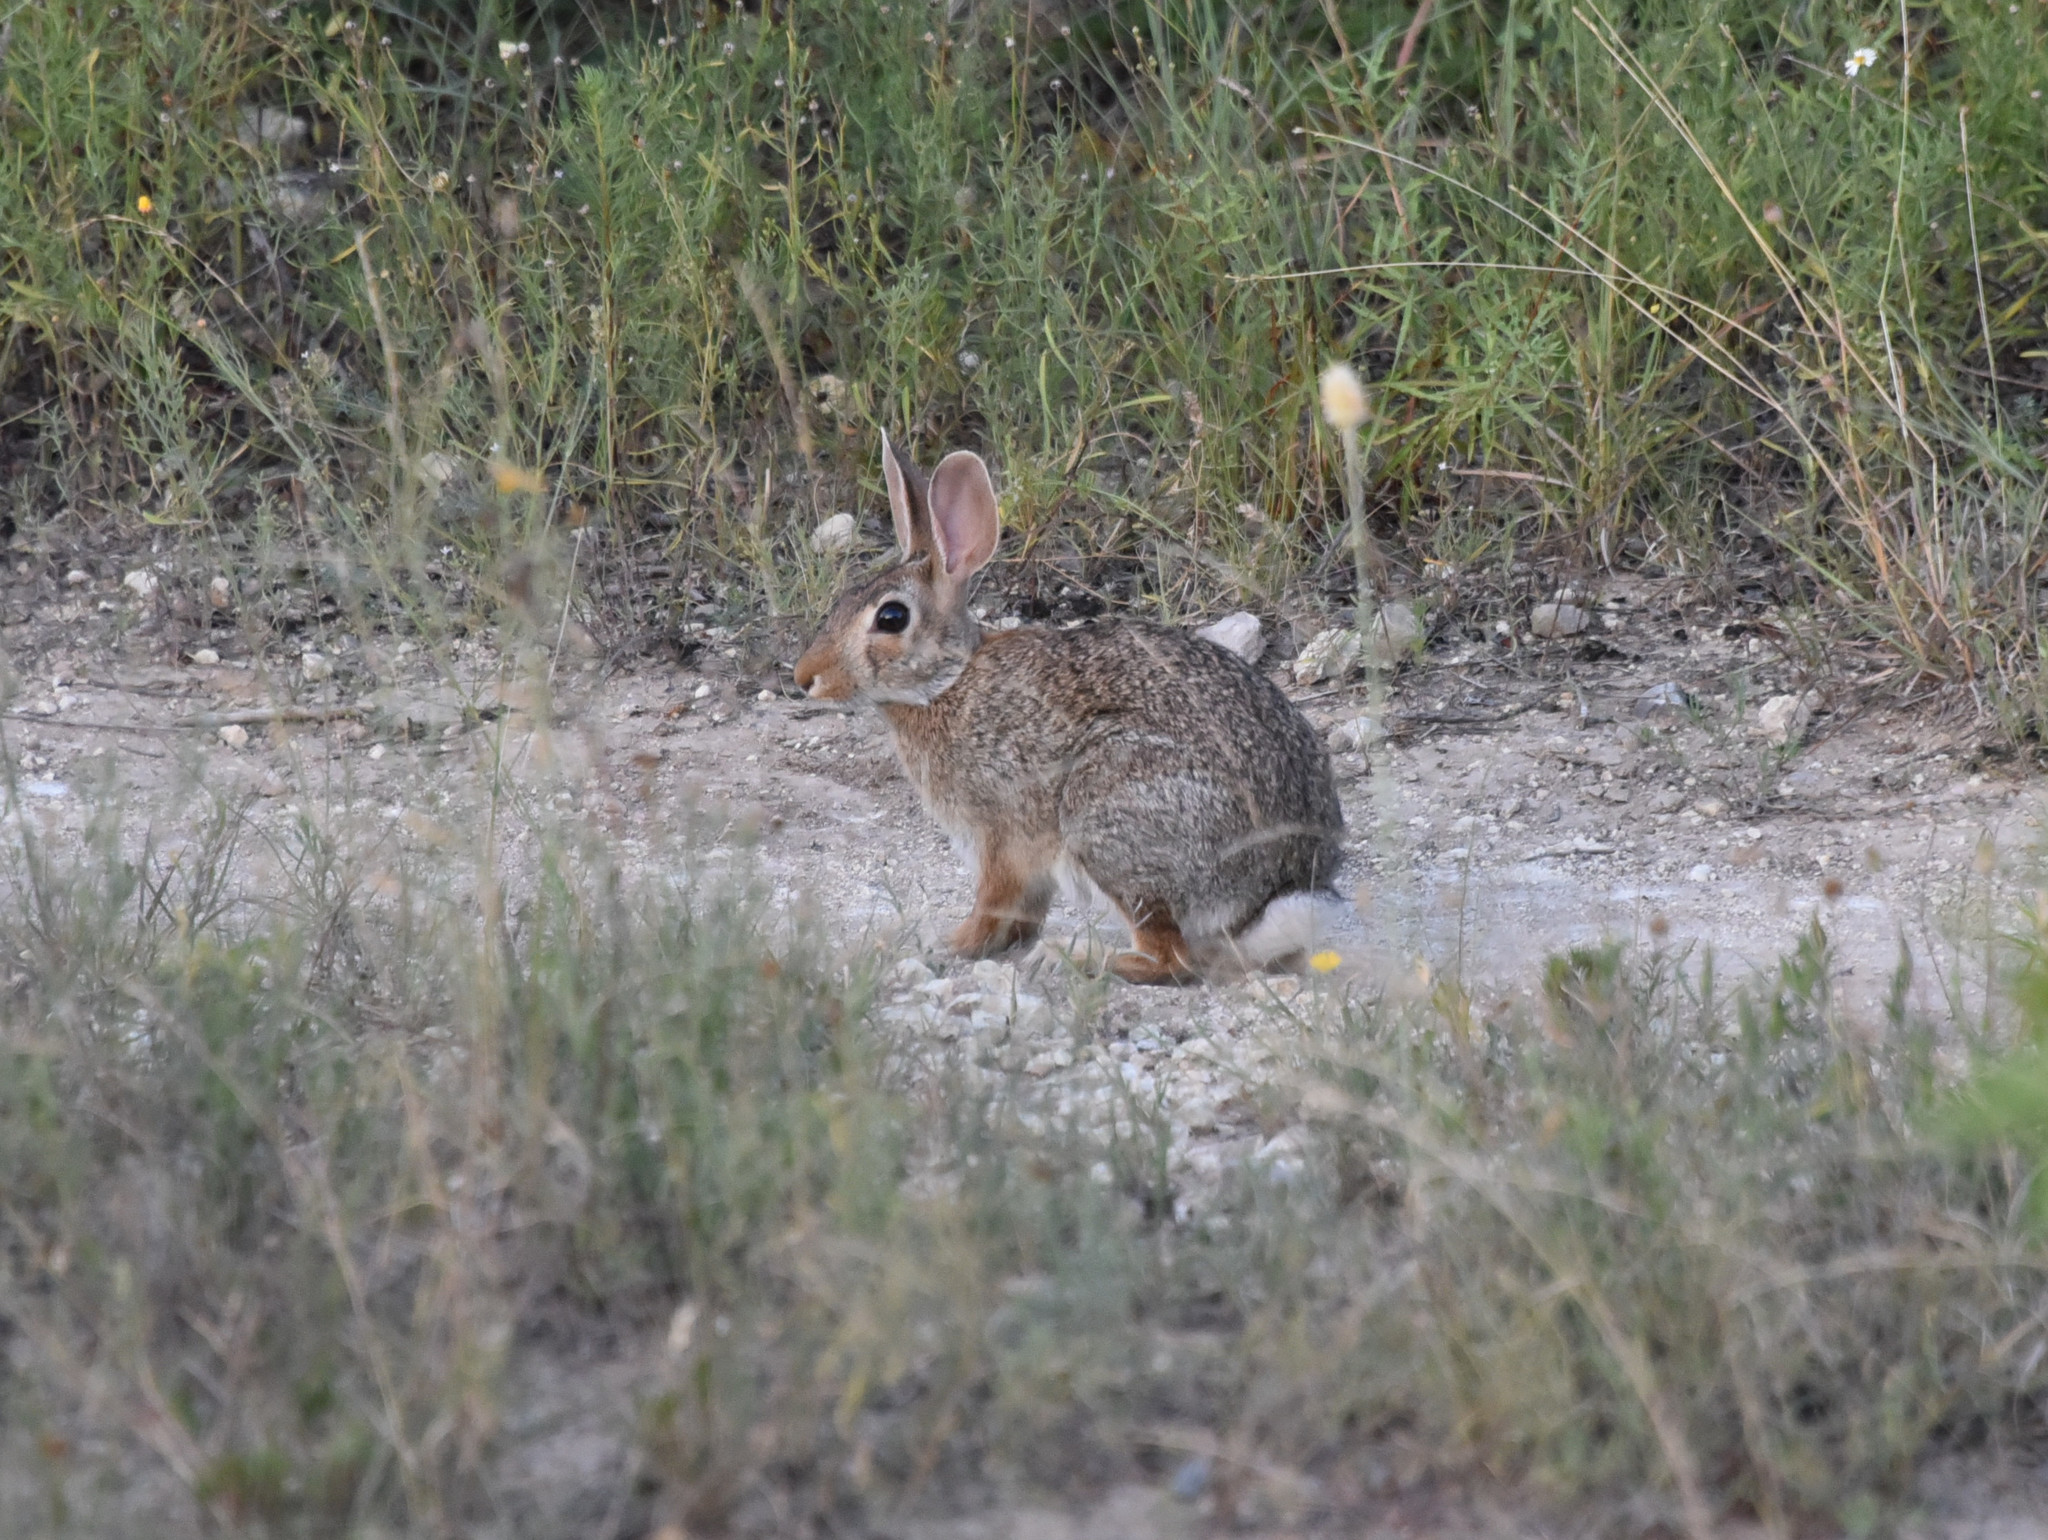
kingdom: Animalia
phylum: Chordata
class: Mammalia
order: Lagomorpha
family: Leporidae
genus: Sylvilagus
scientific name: Sylvilagus floridanus
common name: Eastern cottontail
